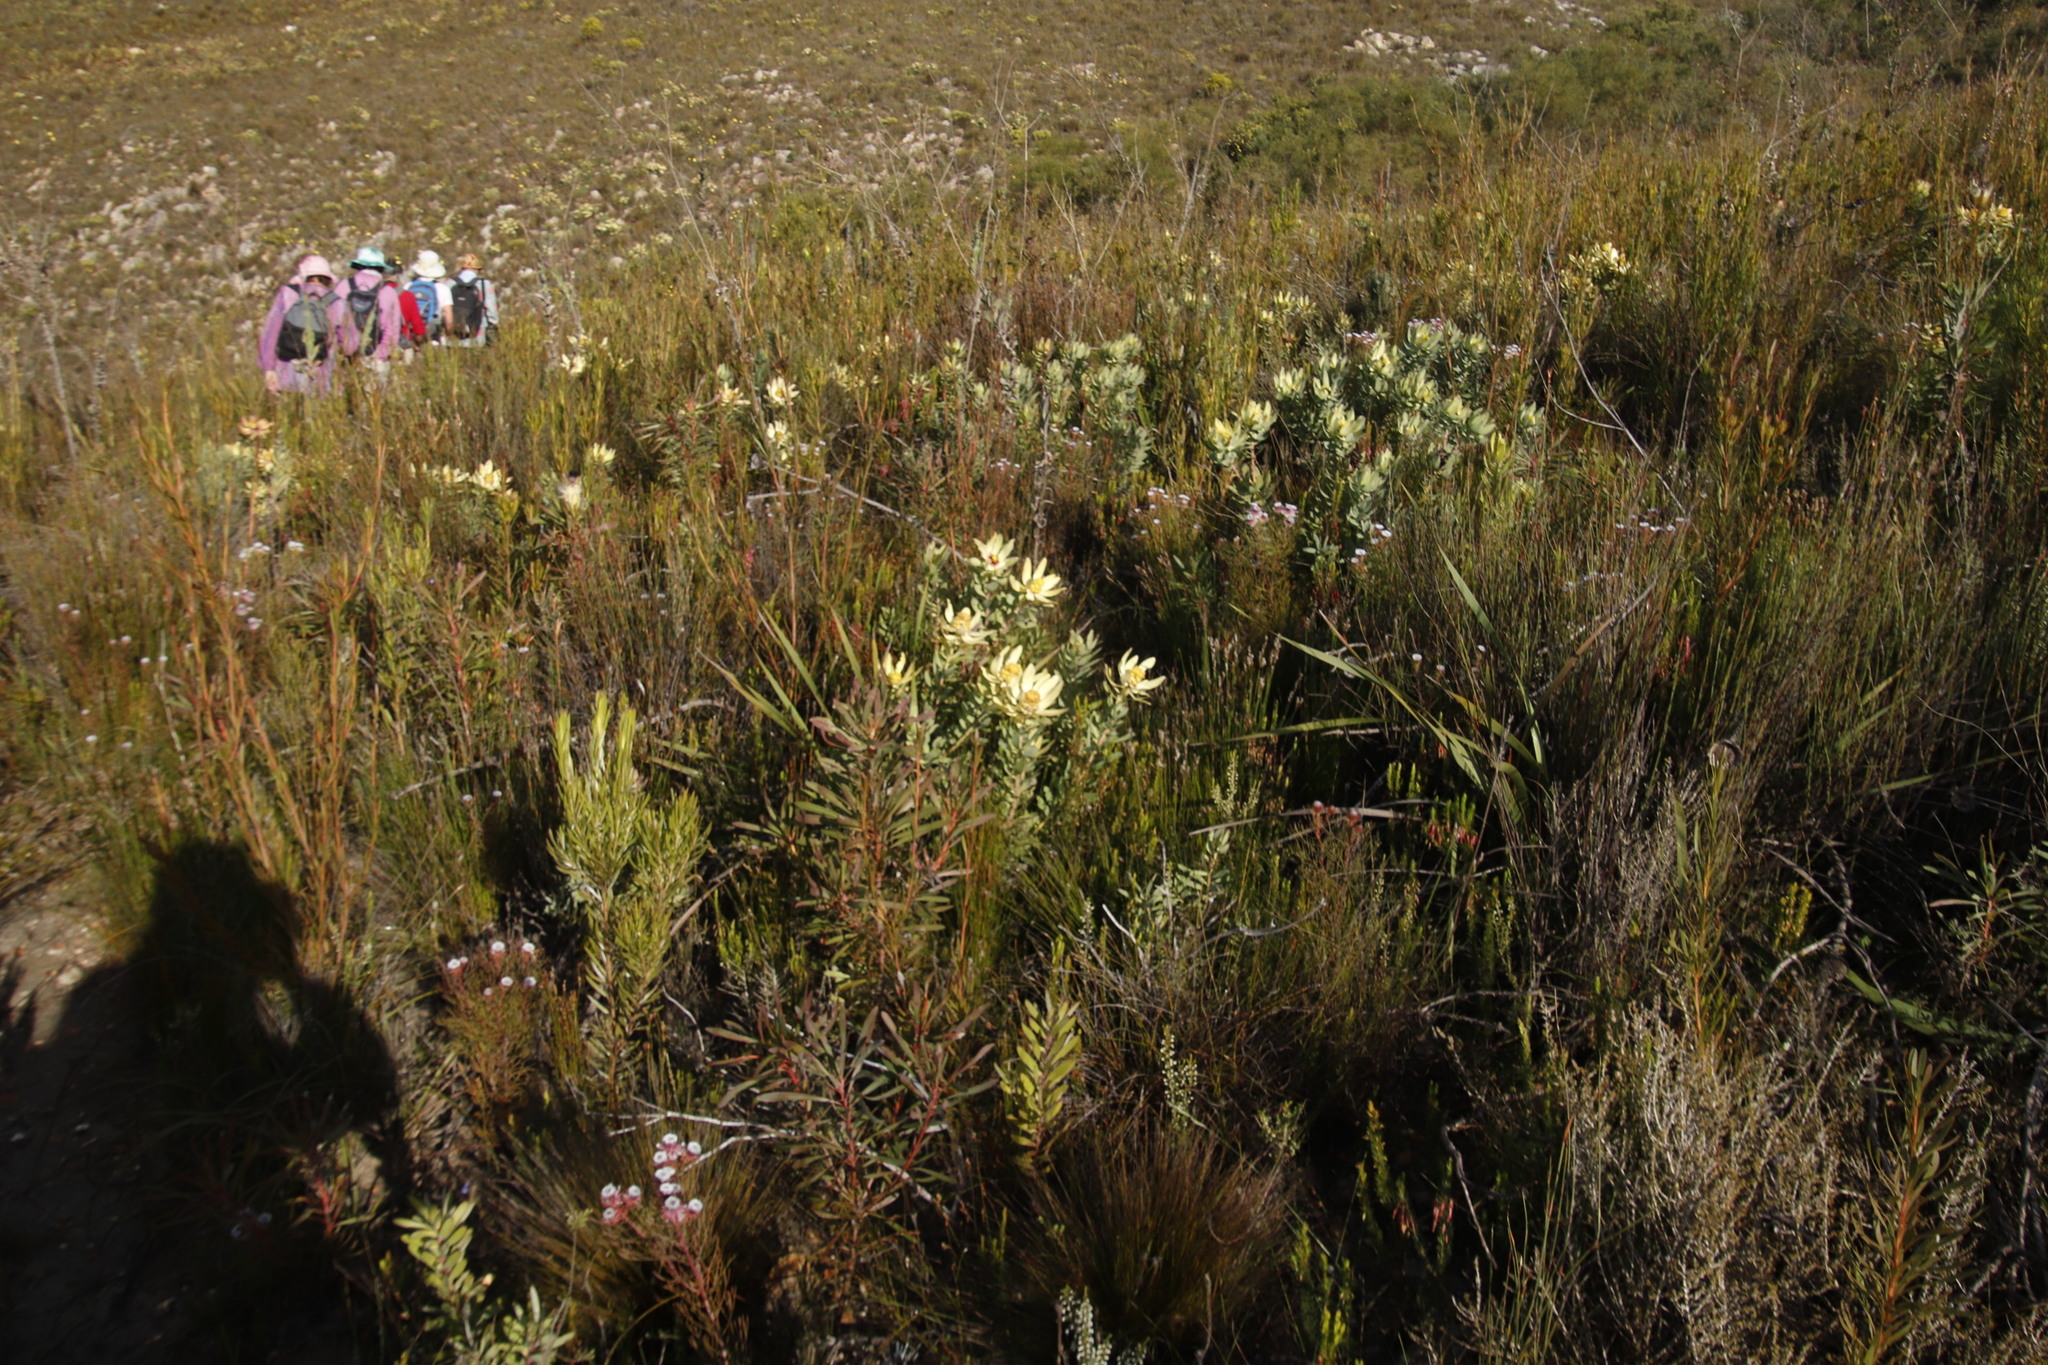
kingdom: Plantae
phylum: Tracheophyta
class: Magnoliopsida
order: Proteales
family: Proteaceae
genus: Leucadendron
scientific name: Leucadendron tinctum
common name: Spicy conebush
